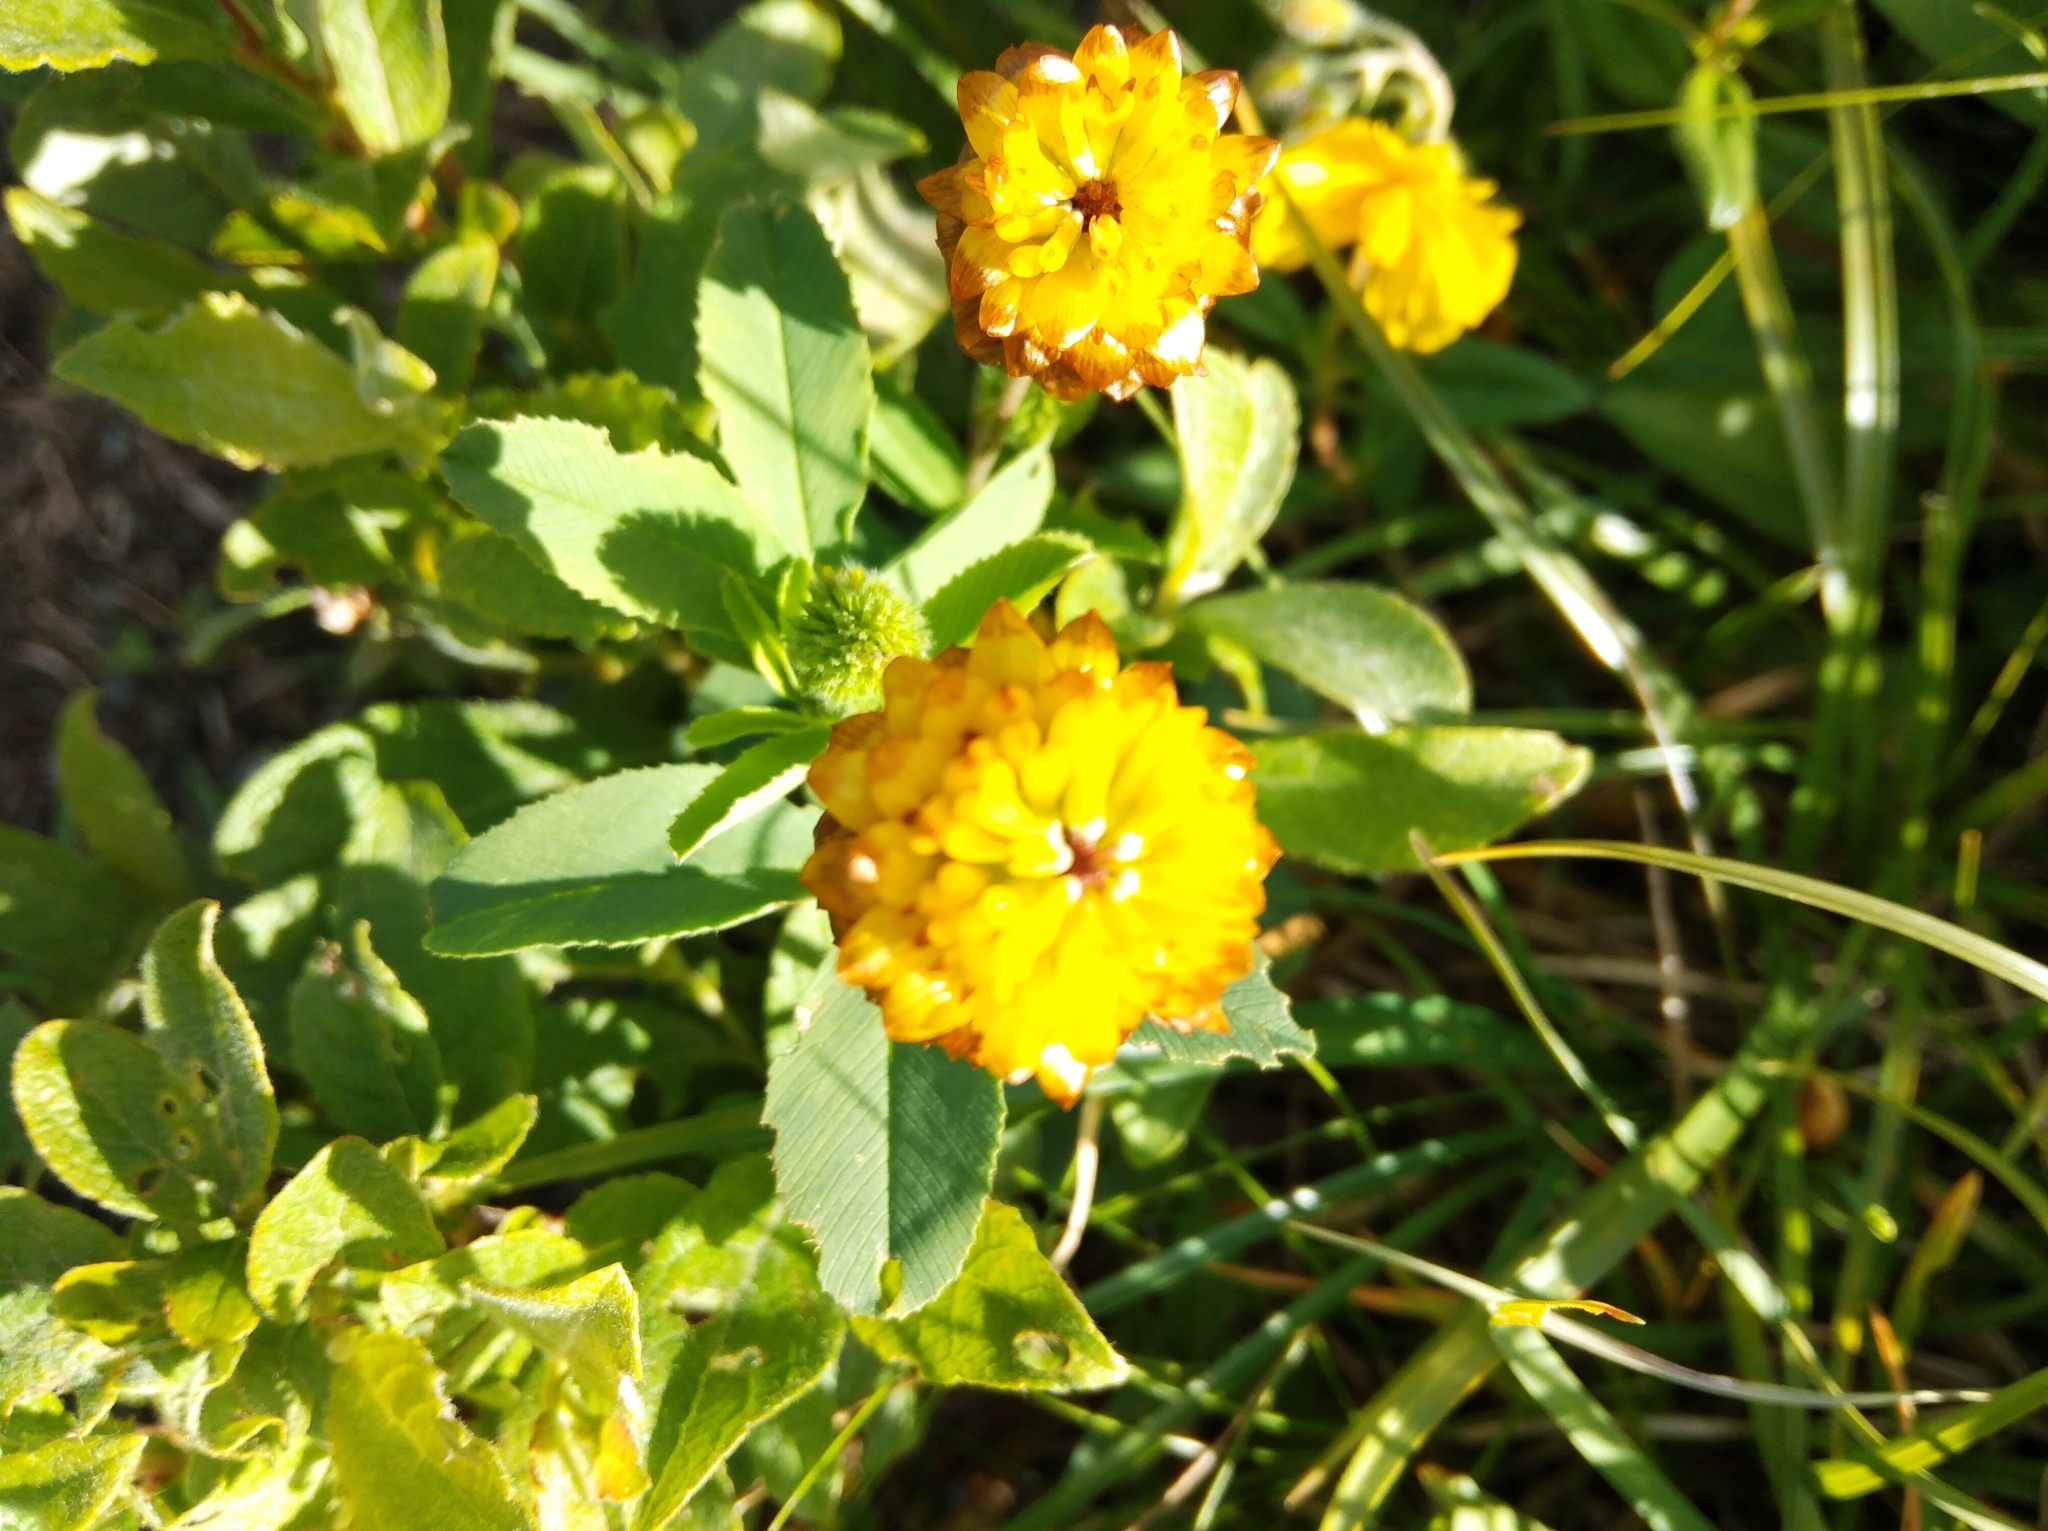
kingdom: Plantae
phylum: Tracheophyta
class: Magnoliopsida
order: Fabales
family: Fabaceae
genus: Trifolium
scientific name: Trifolium badium
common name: Brown clover
